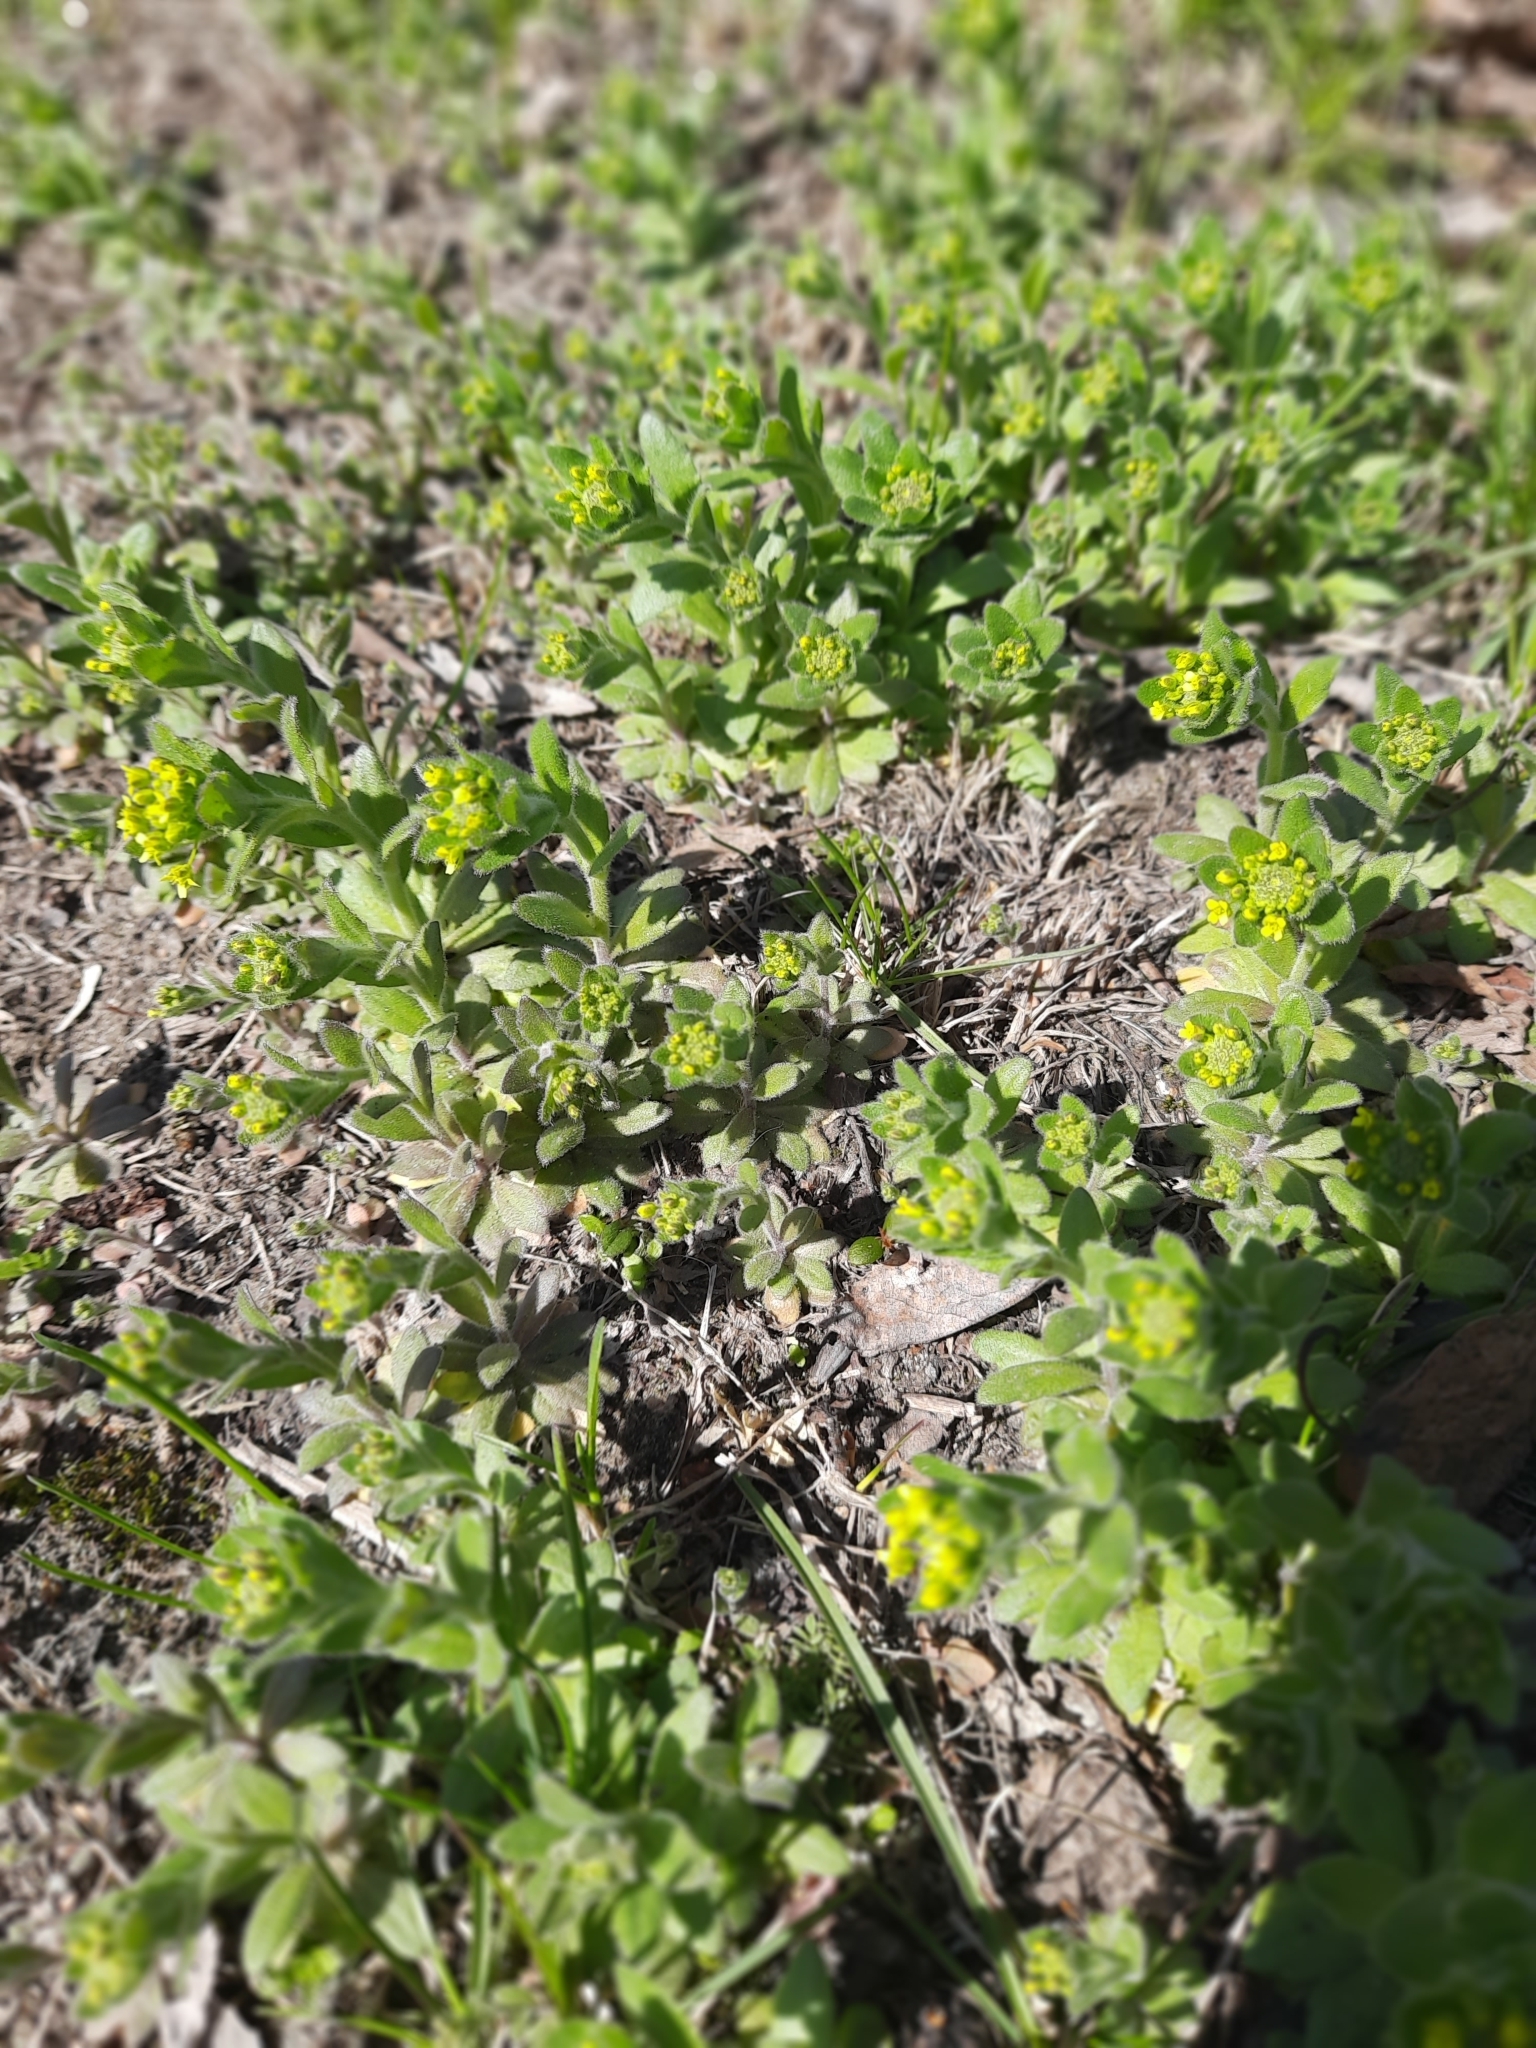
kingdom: Plantae
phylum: Tracheophyta
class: Magnoliopsida
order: Brassicales
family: Brassicaceae
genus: Draba
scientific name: Draba nemorosa
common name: Wood whitlow-grass
